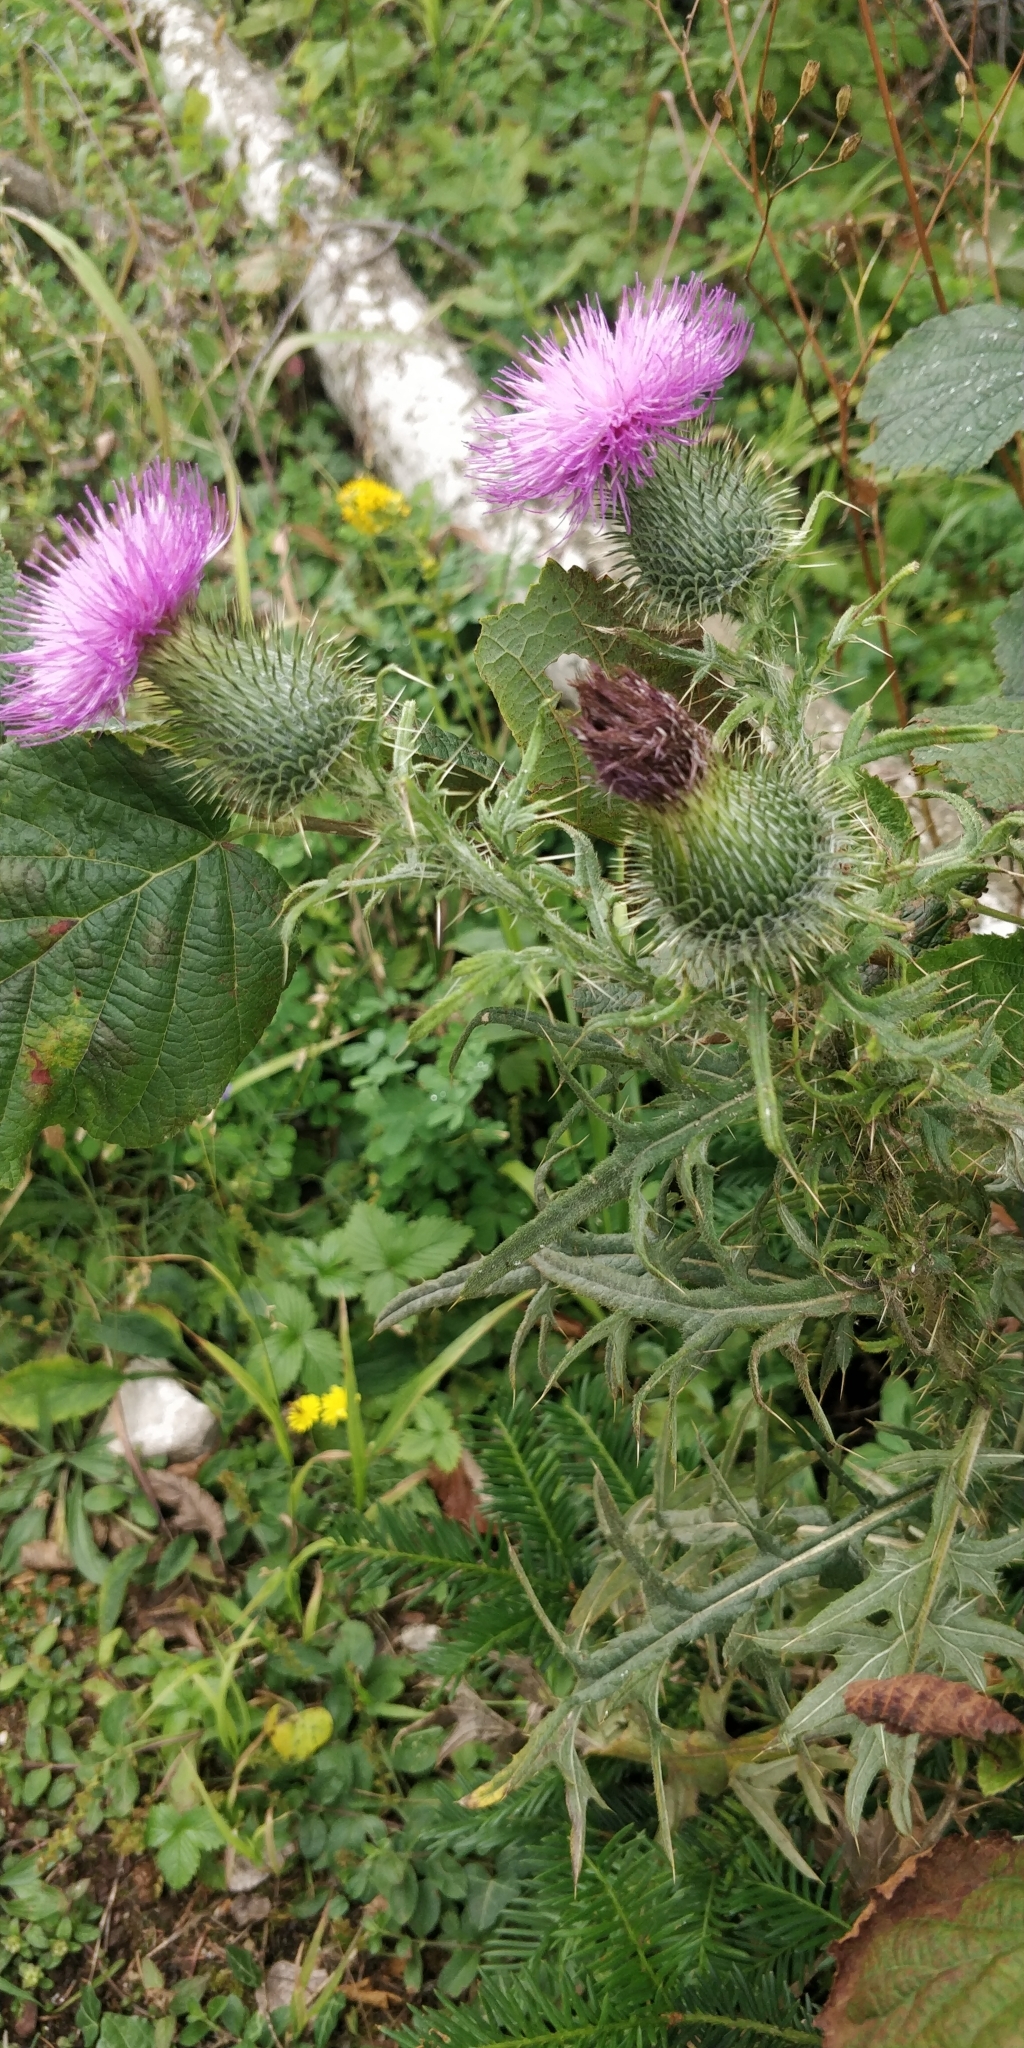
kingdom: Plantae
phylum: Tracheophyta
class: Magnoliopsida
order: Asterales
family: Asteraceae
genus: Cirsium
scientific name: Cirsium vulgare
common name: Bull thistle
